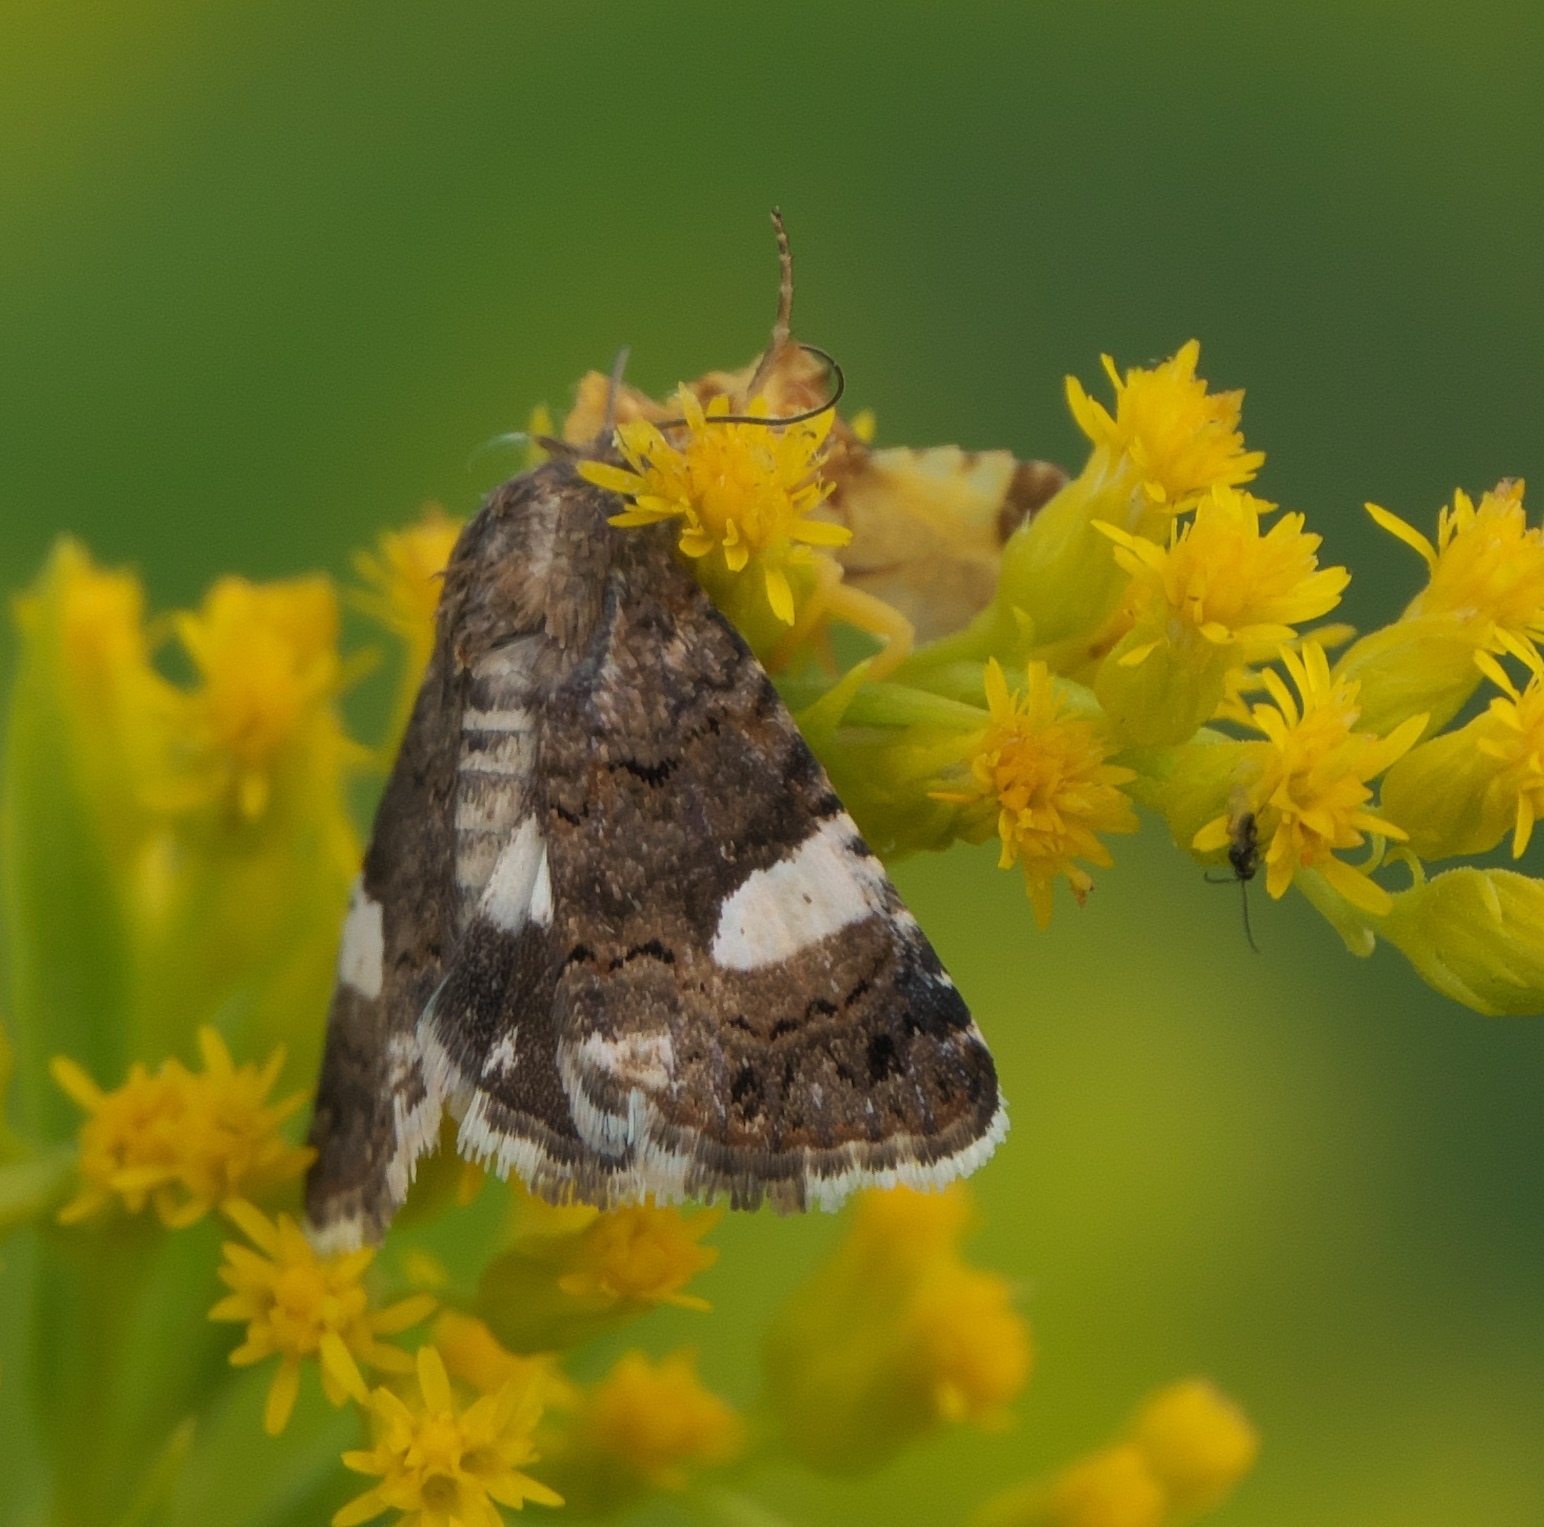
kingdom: Animalia
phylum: Arthropoda
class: Insecta
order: Lepidoptera
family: Erebidae
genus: Tyta
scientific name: Tyta luctuosa
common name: Four-spotted
